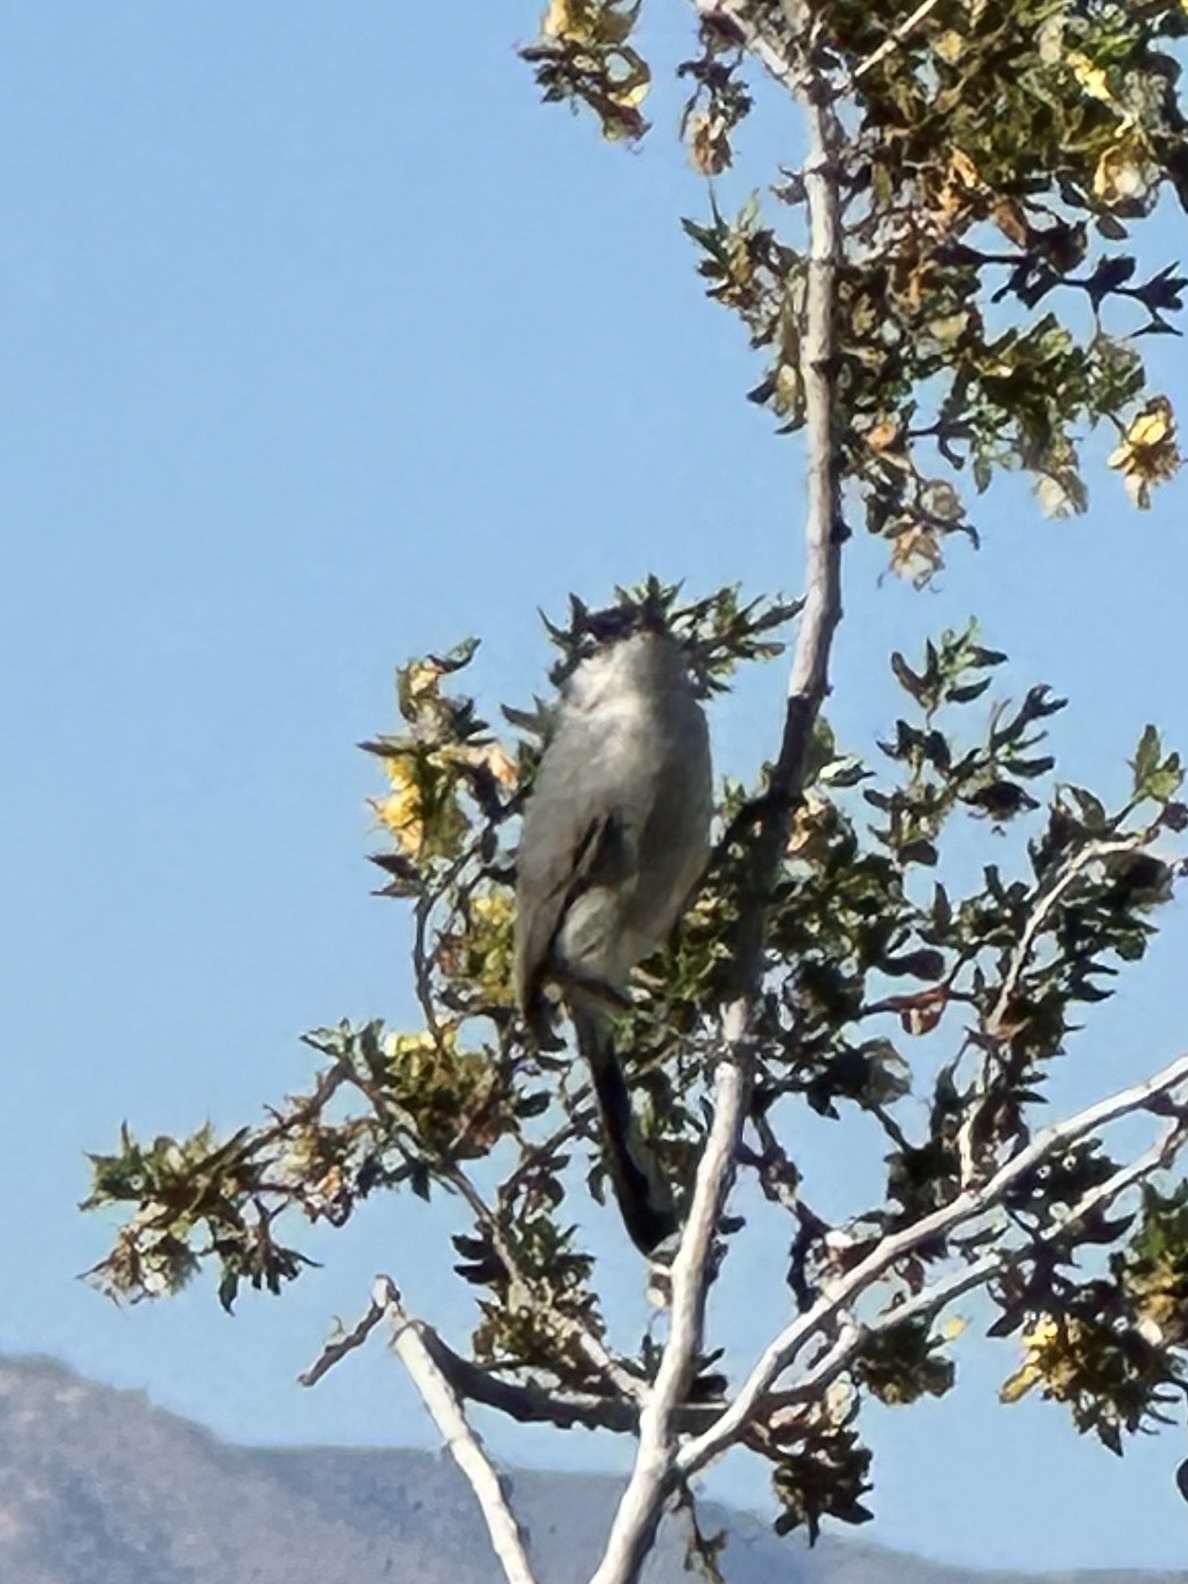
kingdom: Animalia
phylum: Chordata
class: Aves
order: Passeriformes
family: Polioptilidae
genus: Polioptila
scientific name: Polioptila melanura
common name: Black-tailed gnatcatcher
